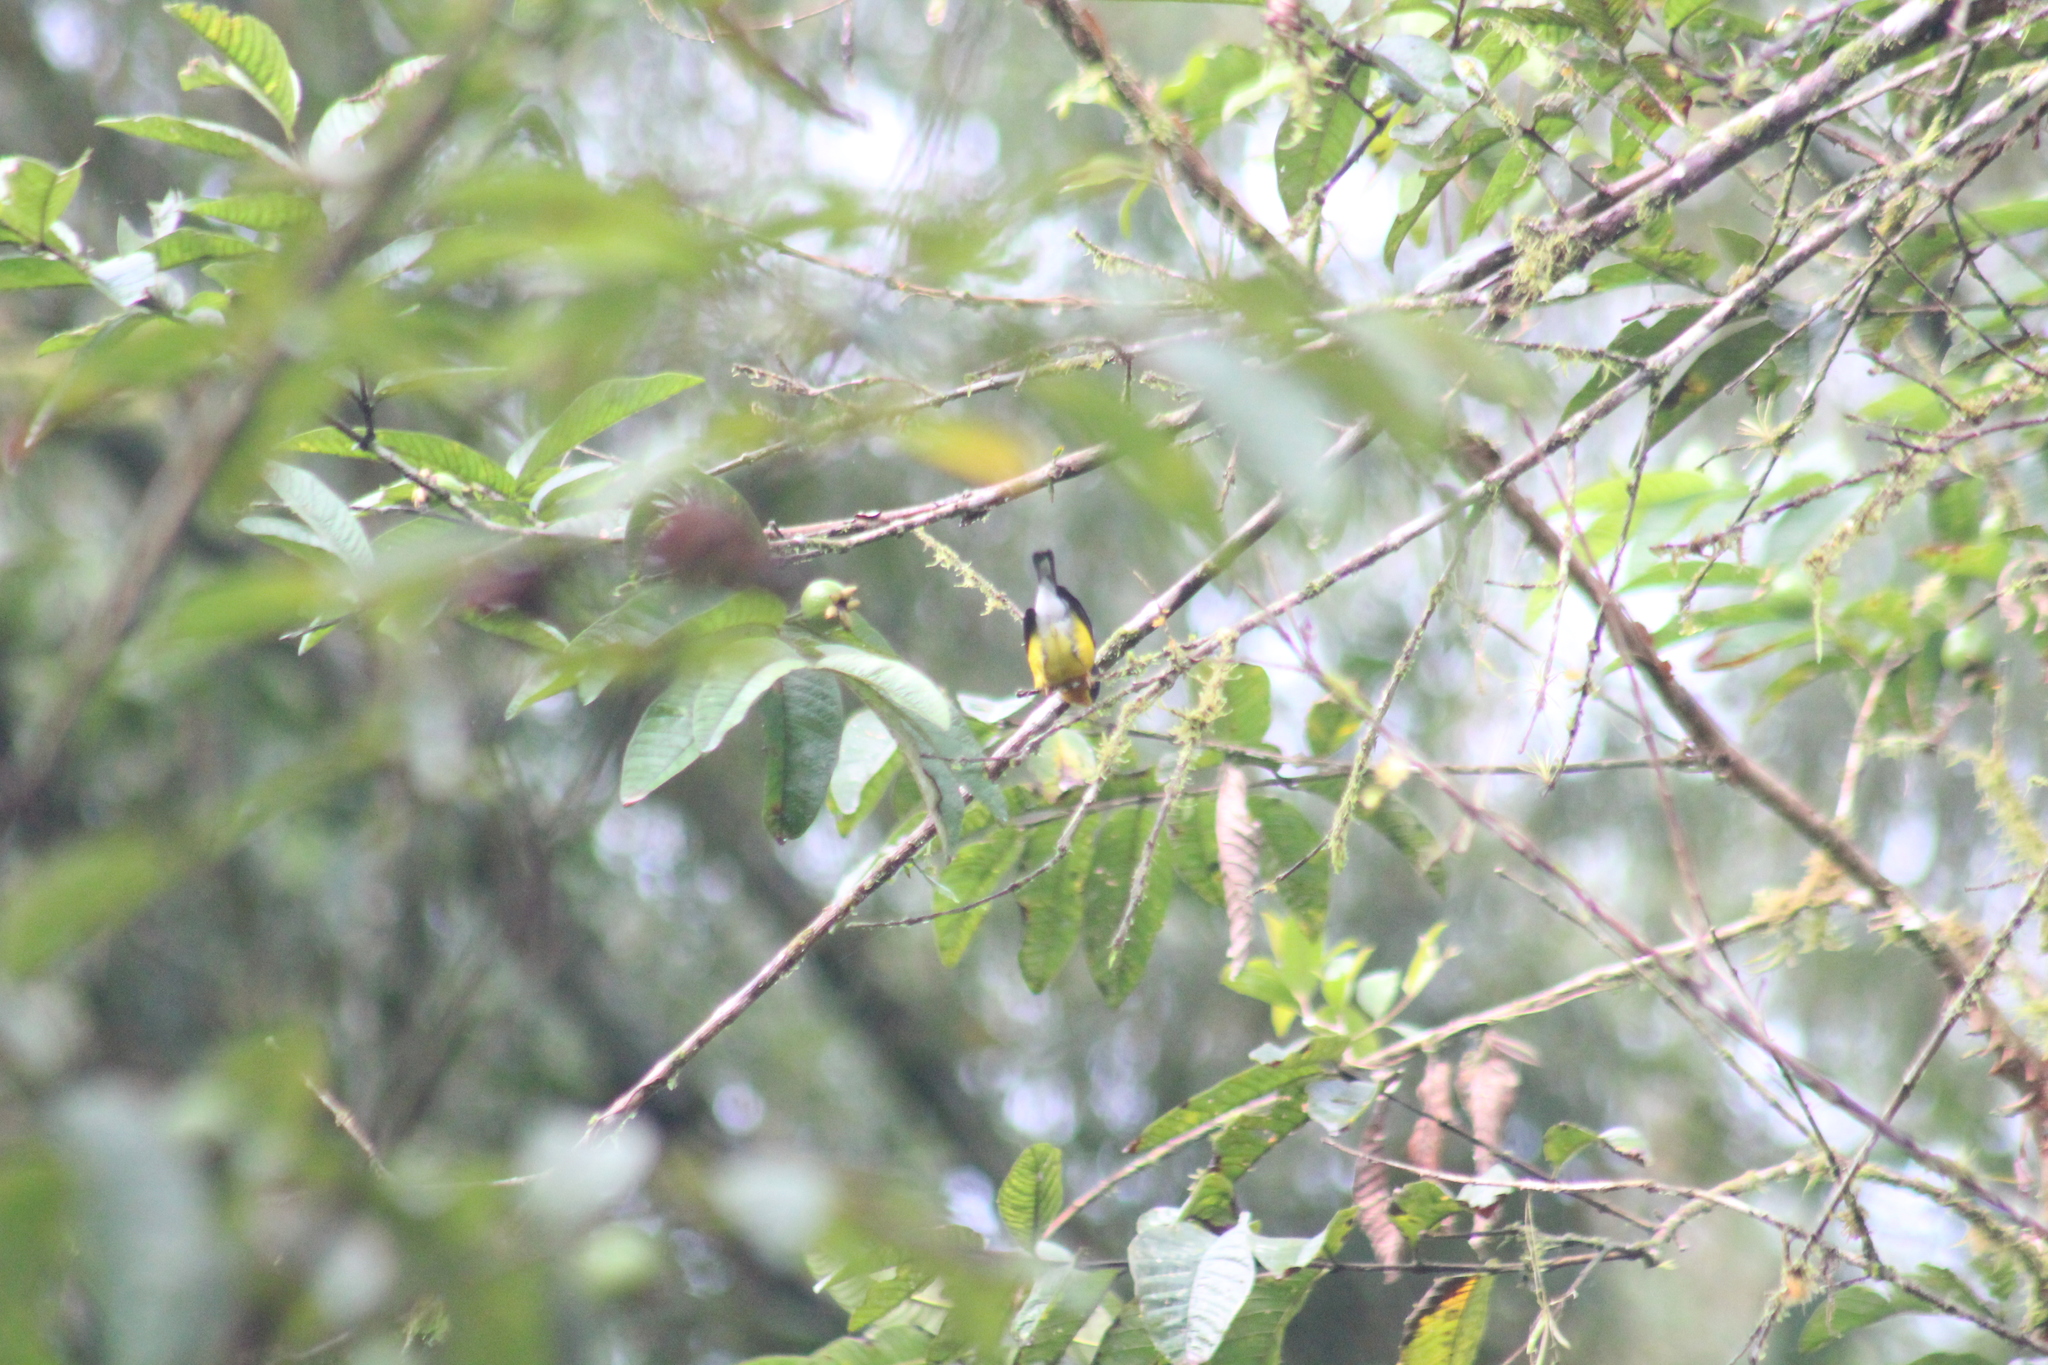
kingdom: Animalia
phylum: Chordata
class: Aves
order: Passeriformes
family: Parulidae
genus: Setophaga
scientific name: Setophaga pitiayumi
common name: Tropical parula
